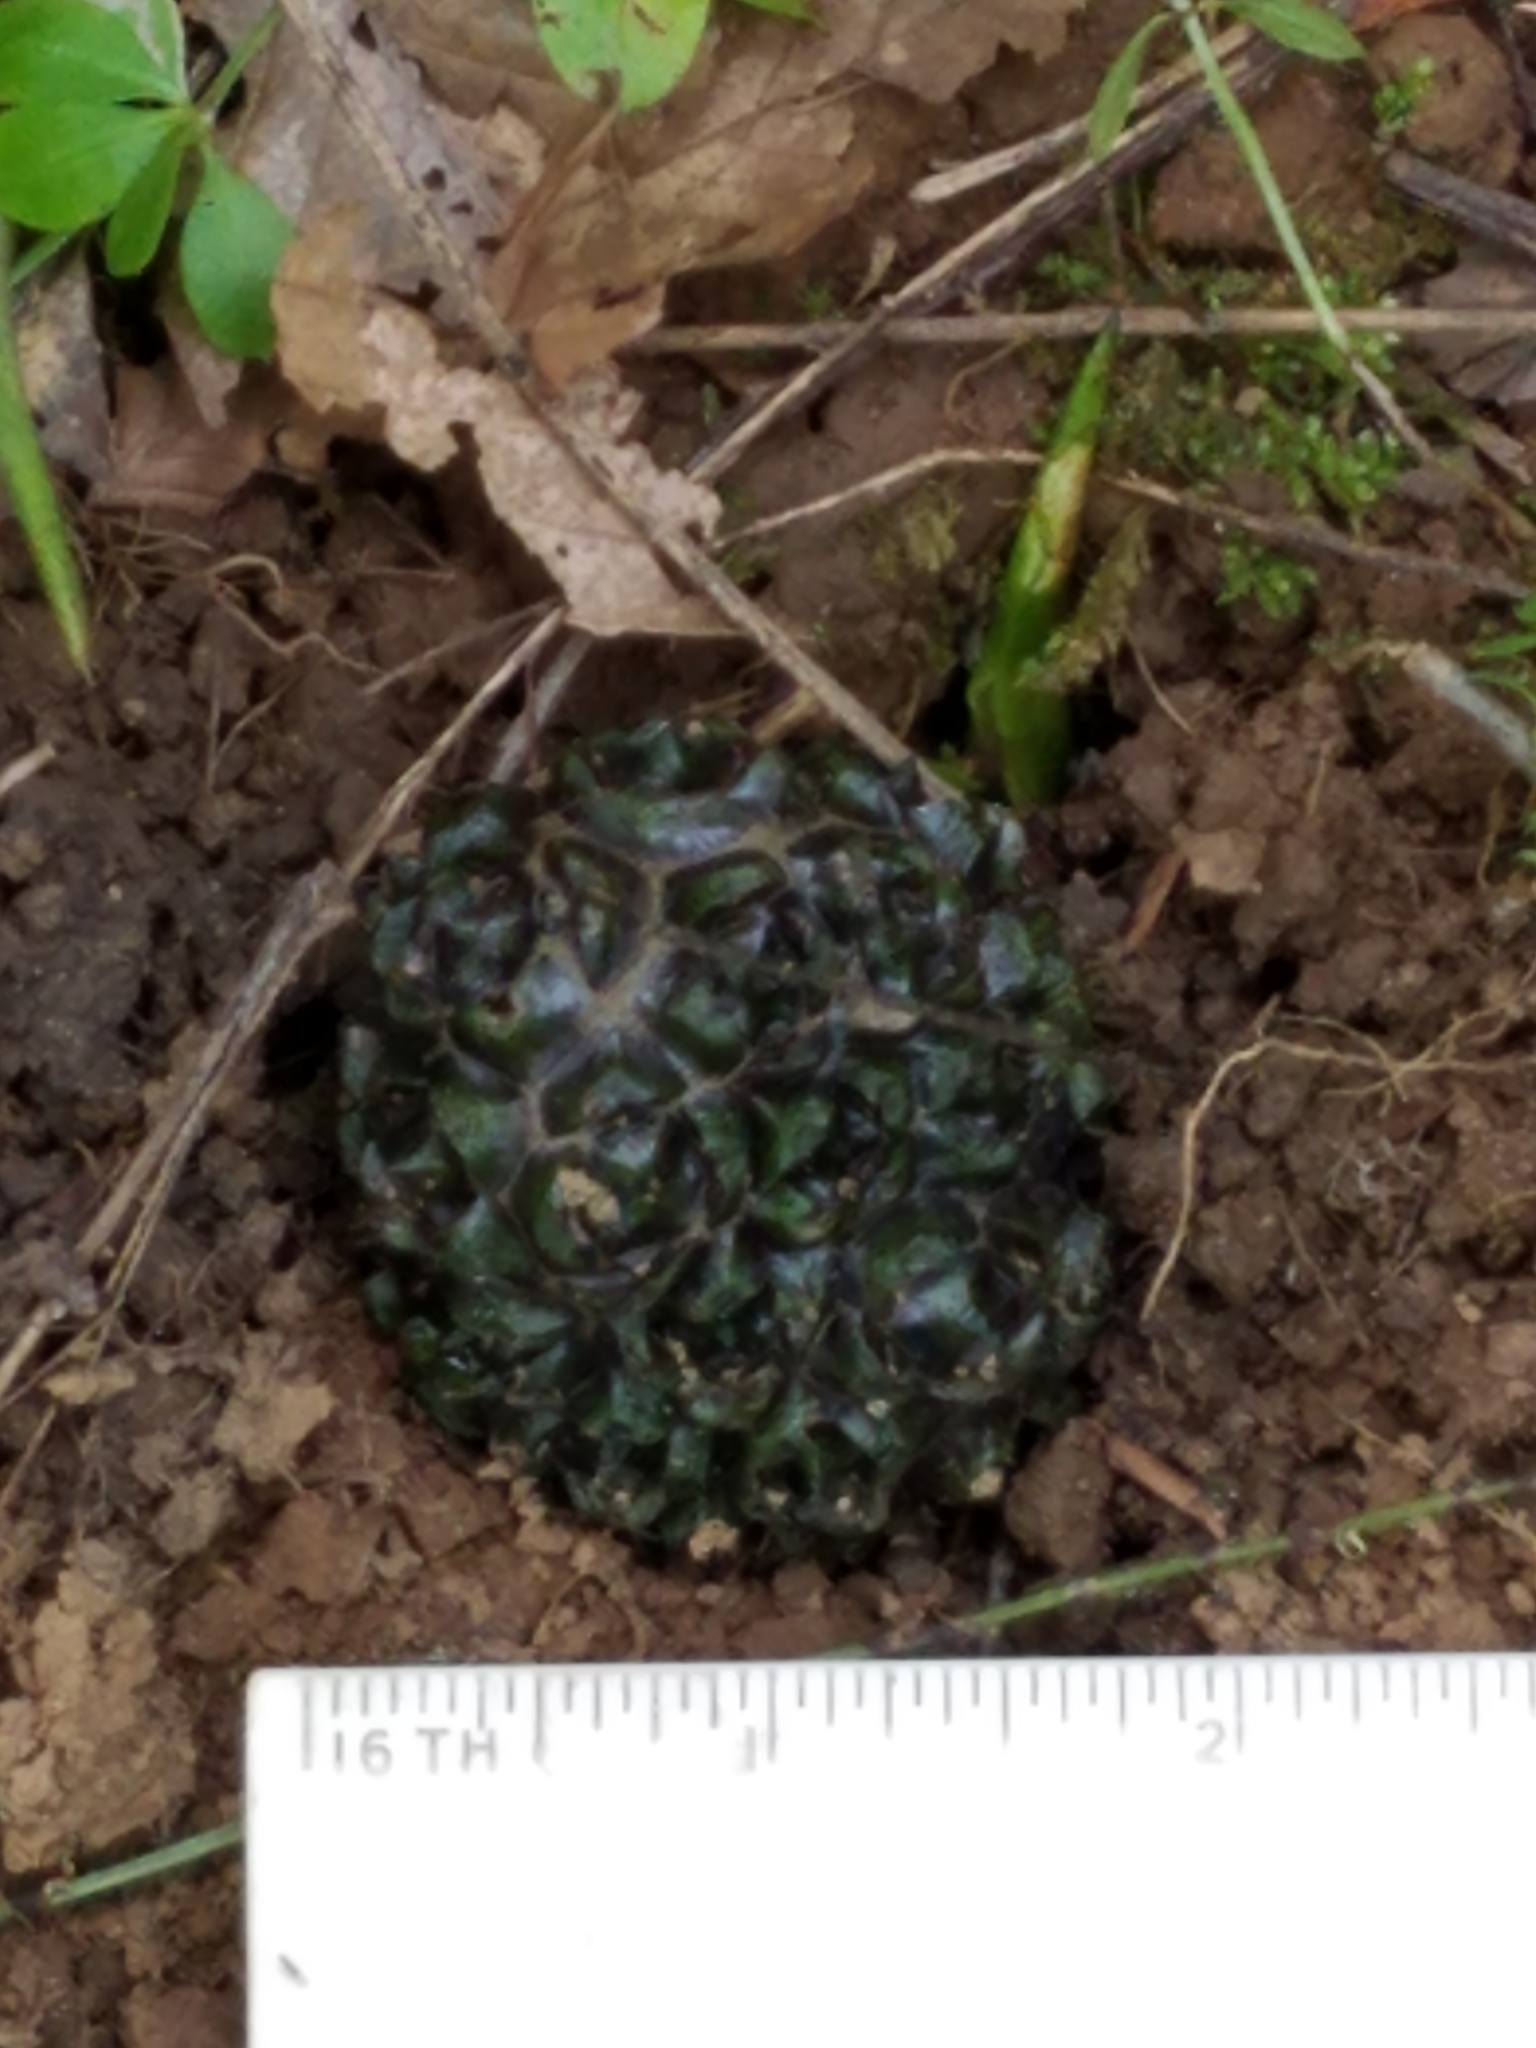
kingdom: Plantae
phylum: Tracheophyta
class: Liliopsida
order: Alismatales
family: Araceae
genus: Symplocarpus
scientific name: Symplocarpus foetidus
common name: Eastern skunk cabbage
